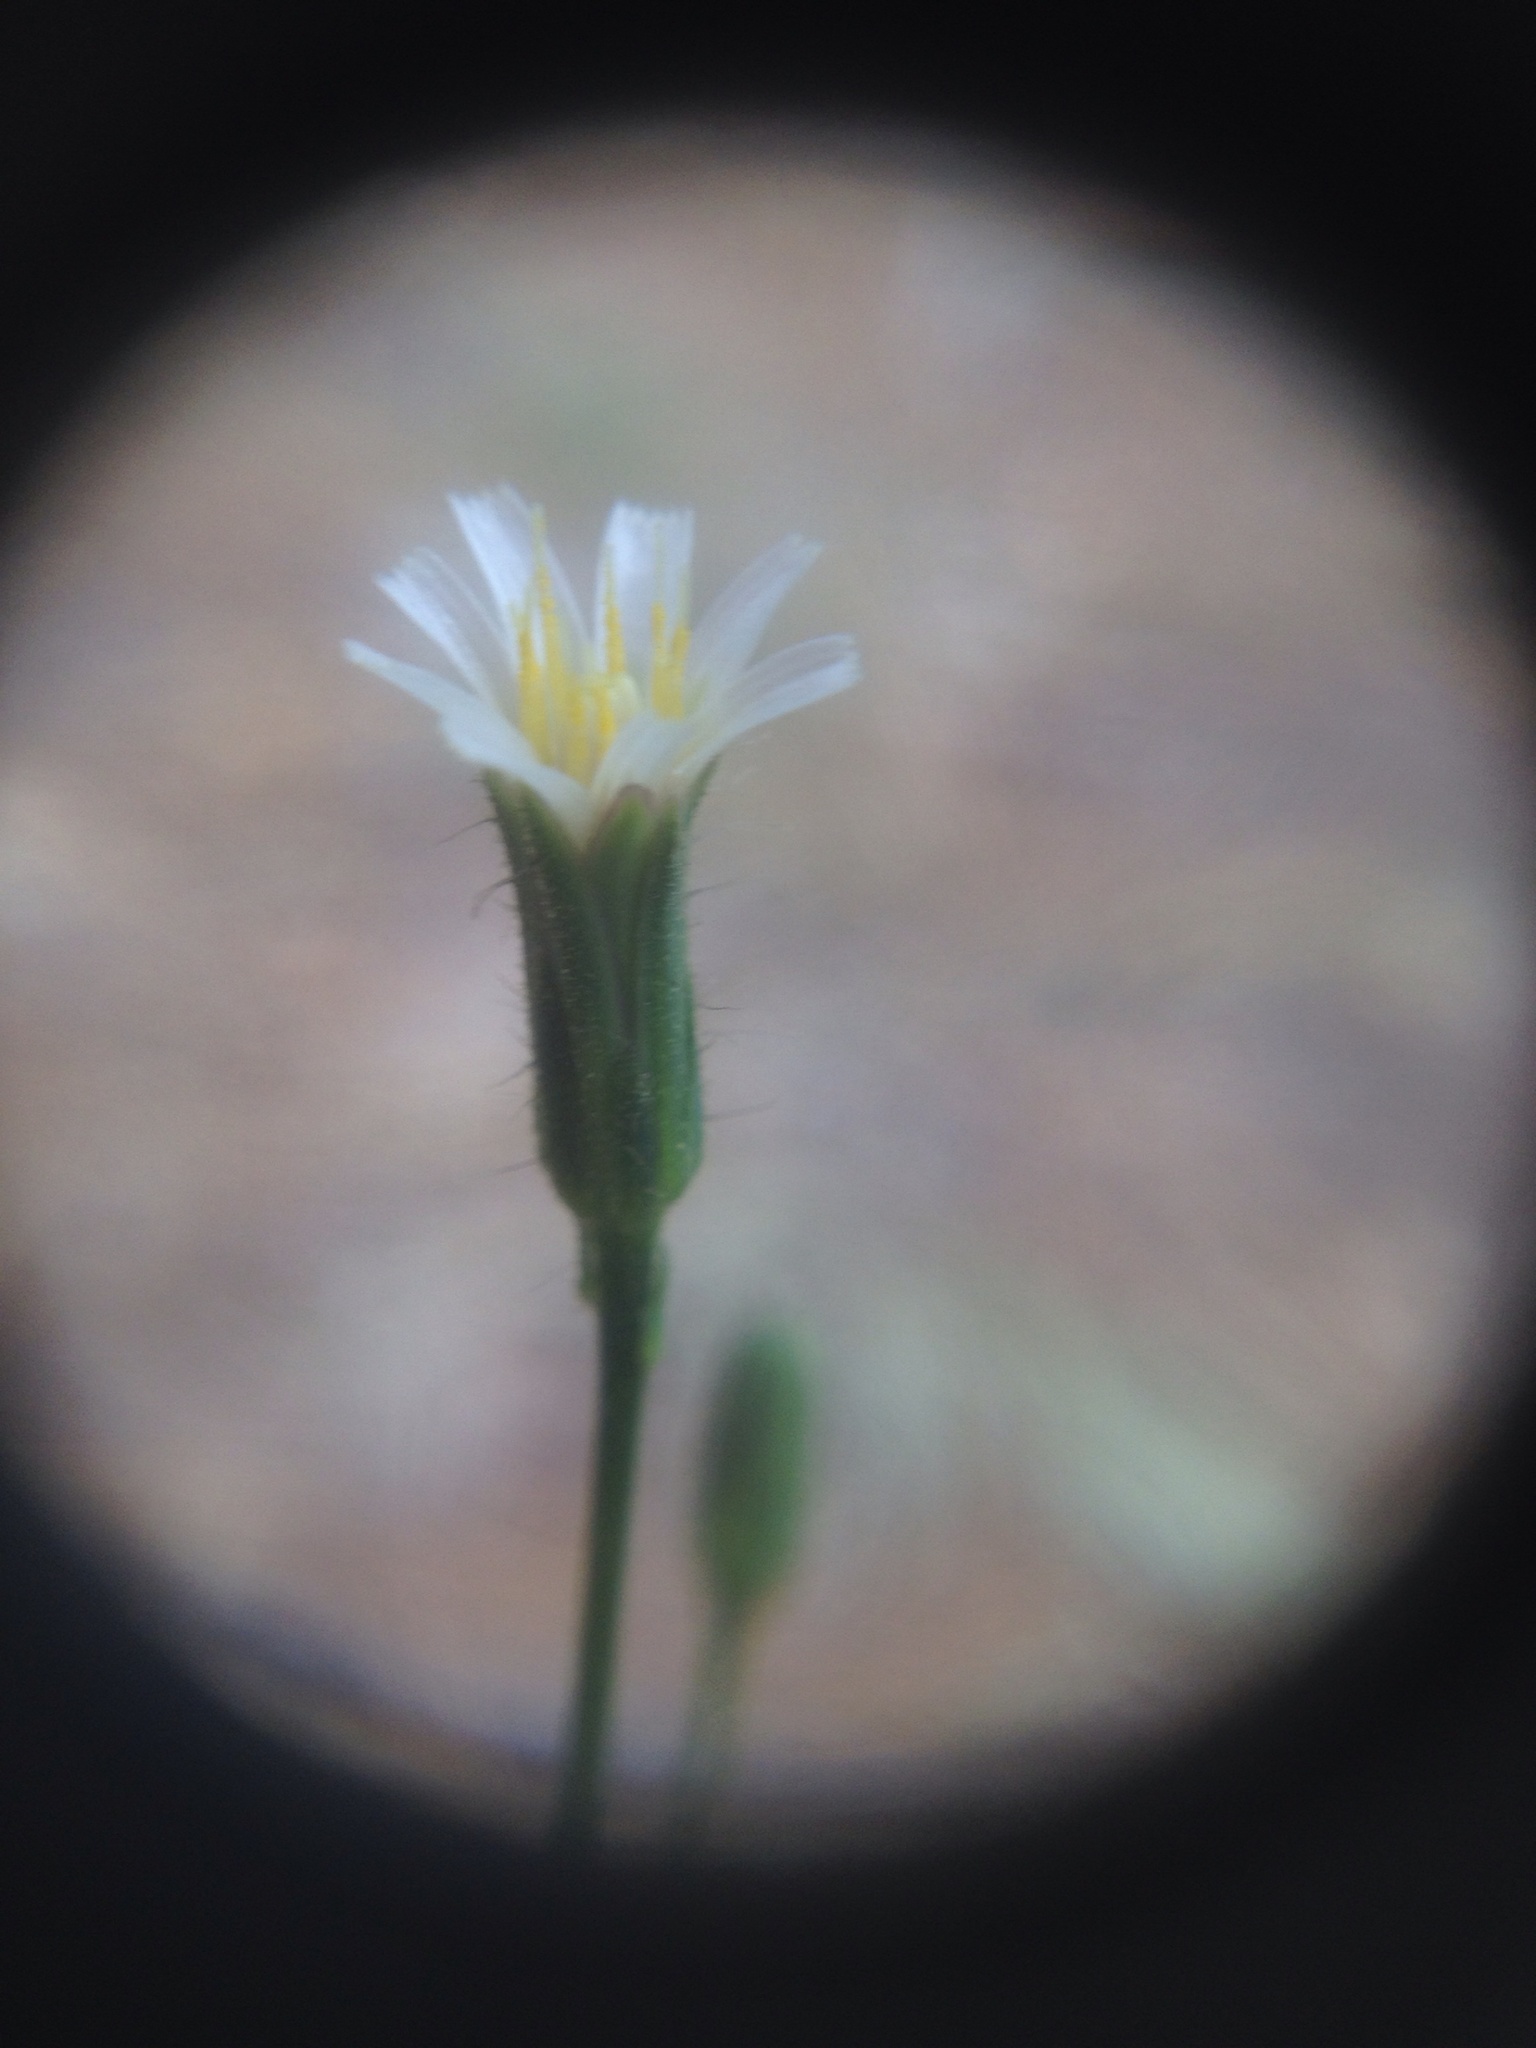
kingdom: Plantae
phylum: Tracheophyta
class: Magnoliopsida
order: Asterales
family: Asteraceae
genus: Hieracium
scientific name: Hieracium albiflorum
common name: White hawkweed
